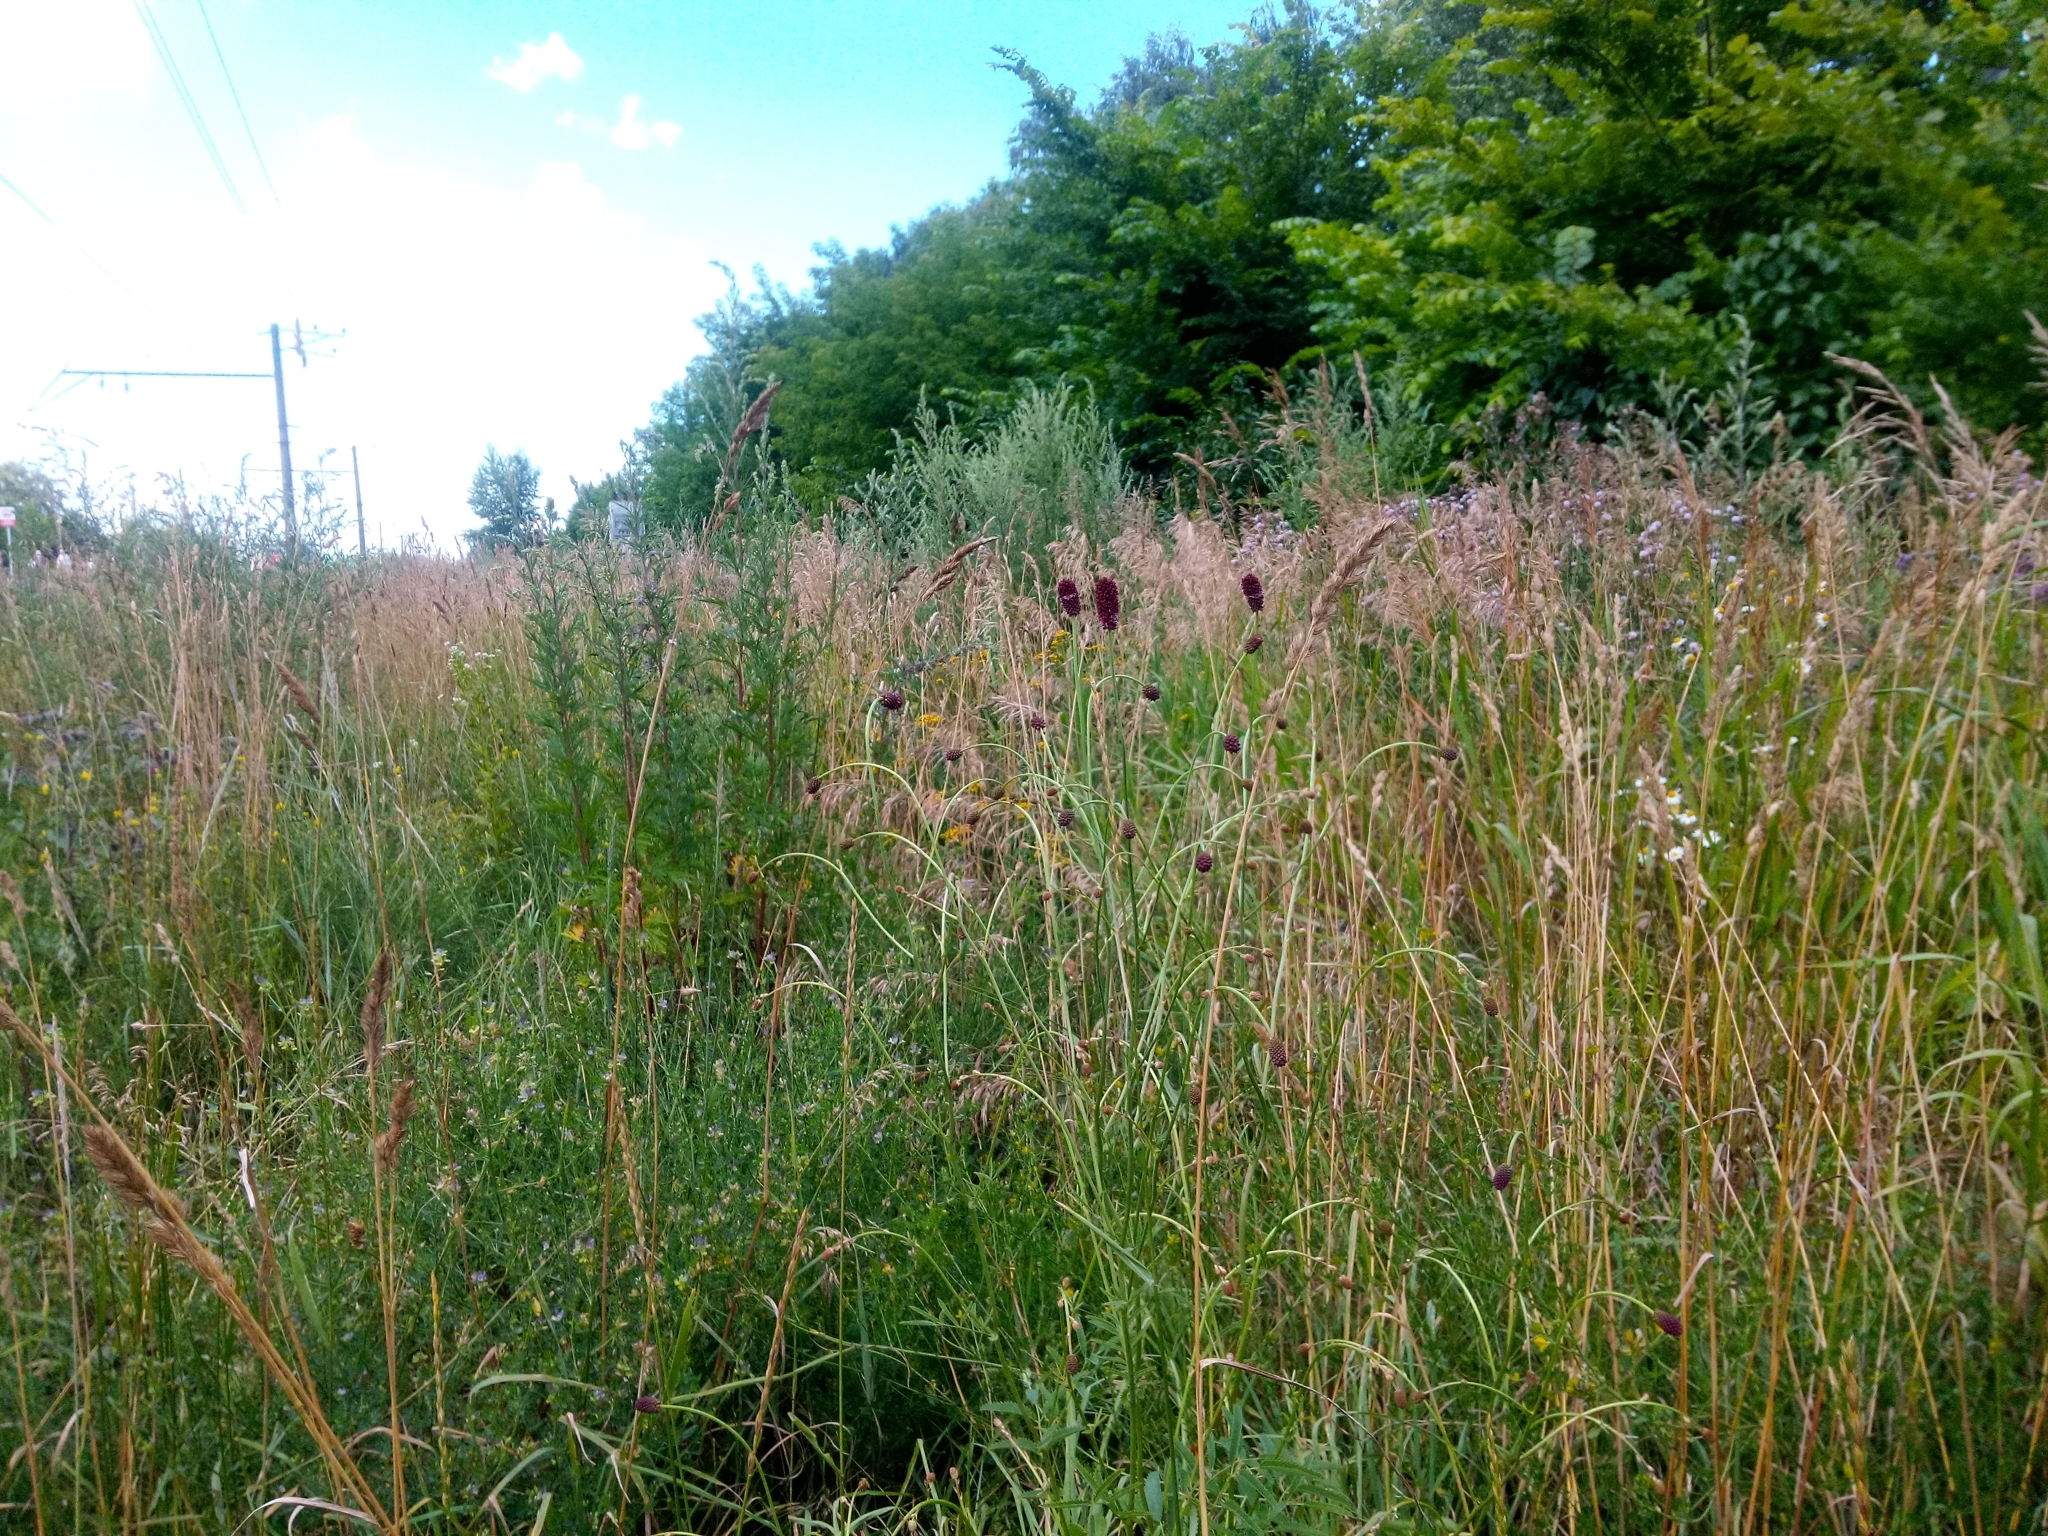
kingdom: Plantae
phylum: Tracheophyta
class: Magnoliopsida
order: Rosales
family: Rosaceae
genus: Sanguisorba
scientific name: Sanguisorba officinalis
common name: Great burnet
